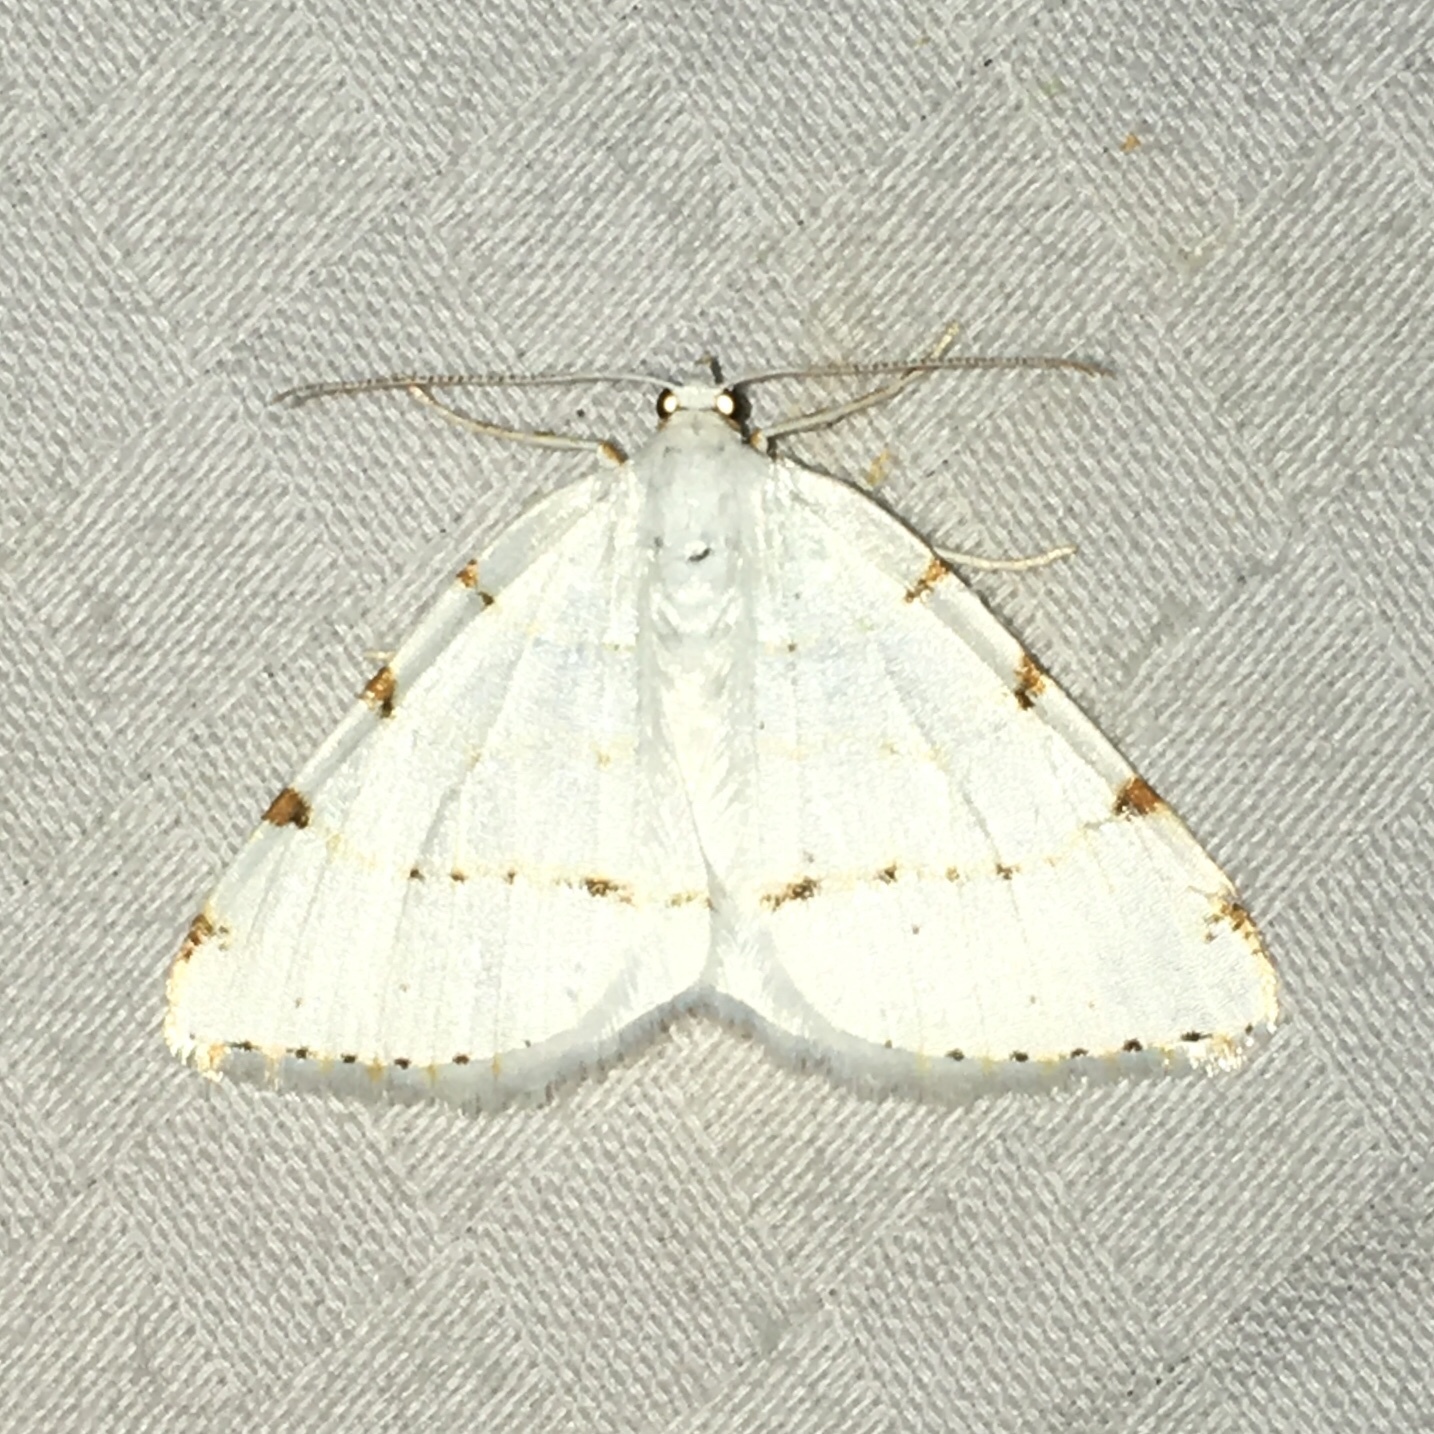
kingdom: Animalia
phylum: Arthropoda
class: Insecta
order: Lepidoptera
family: Geometridae
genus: Macaria
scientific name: Macaria pustularia
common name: Lesser maple spanworm moth
